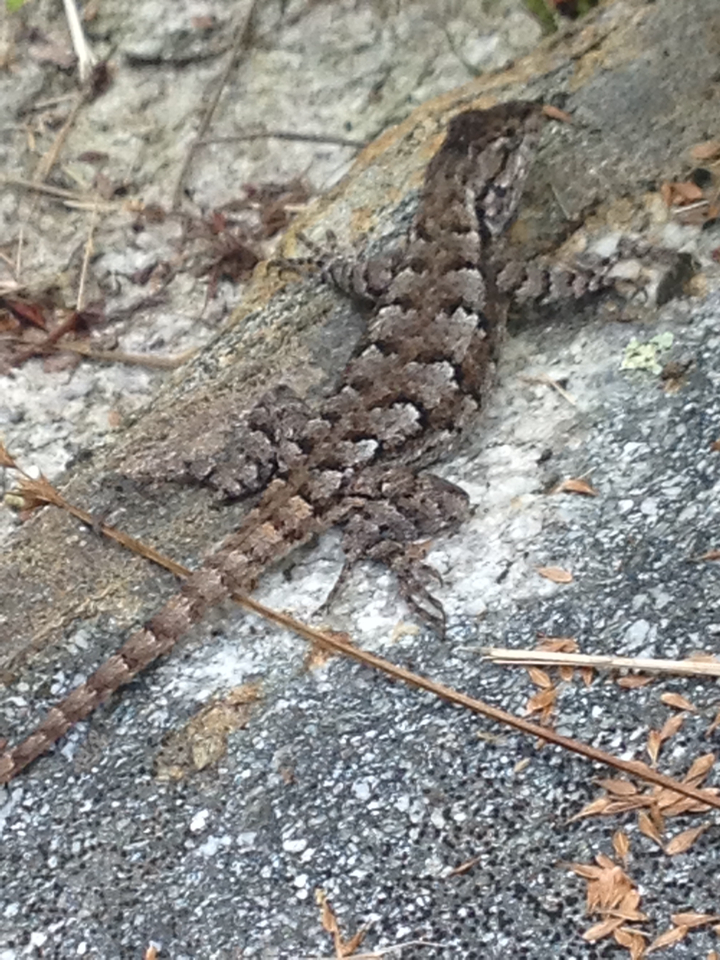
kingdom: Animalia
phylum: Chordata
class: Squamata
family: Phrynosomatidae
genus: Sceloporus
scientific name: Sceloporus undulatus
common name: Eastern fence lizard
